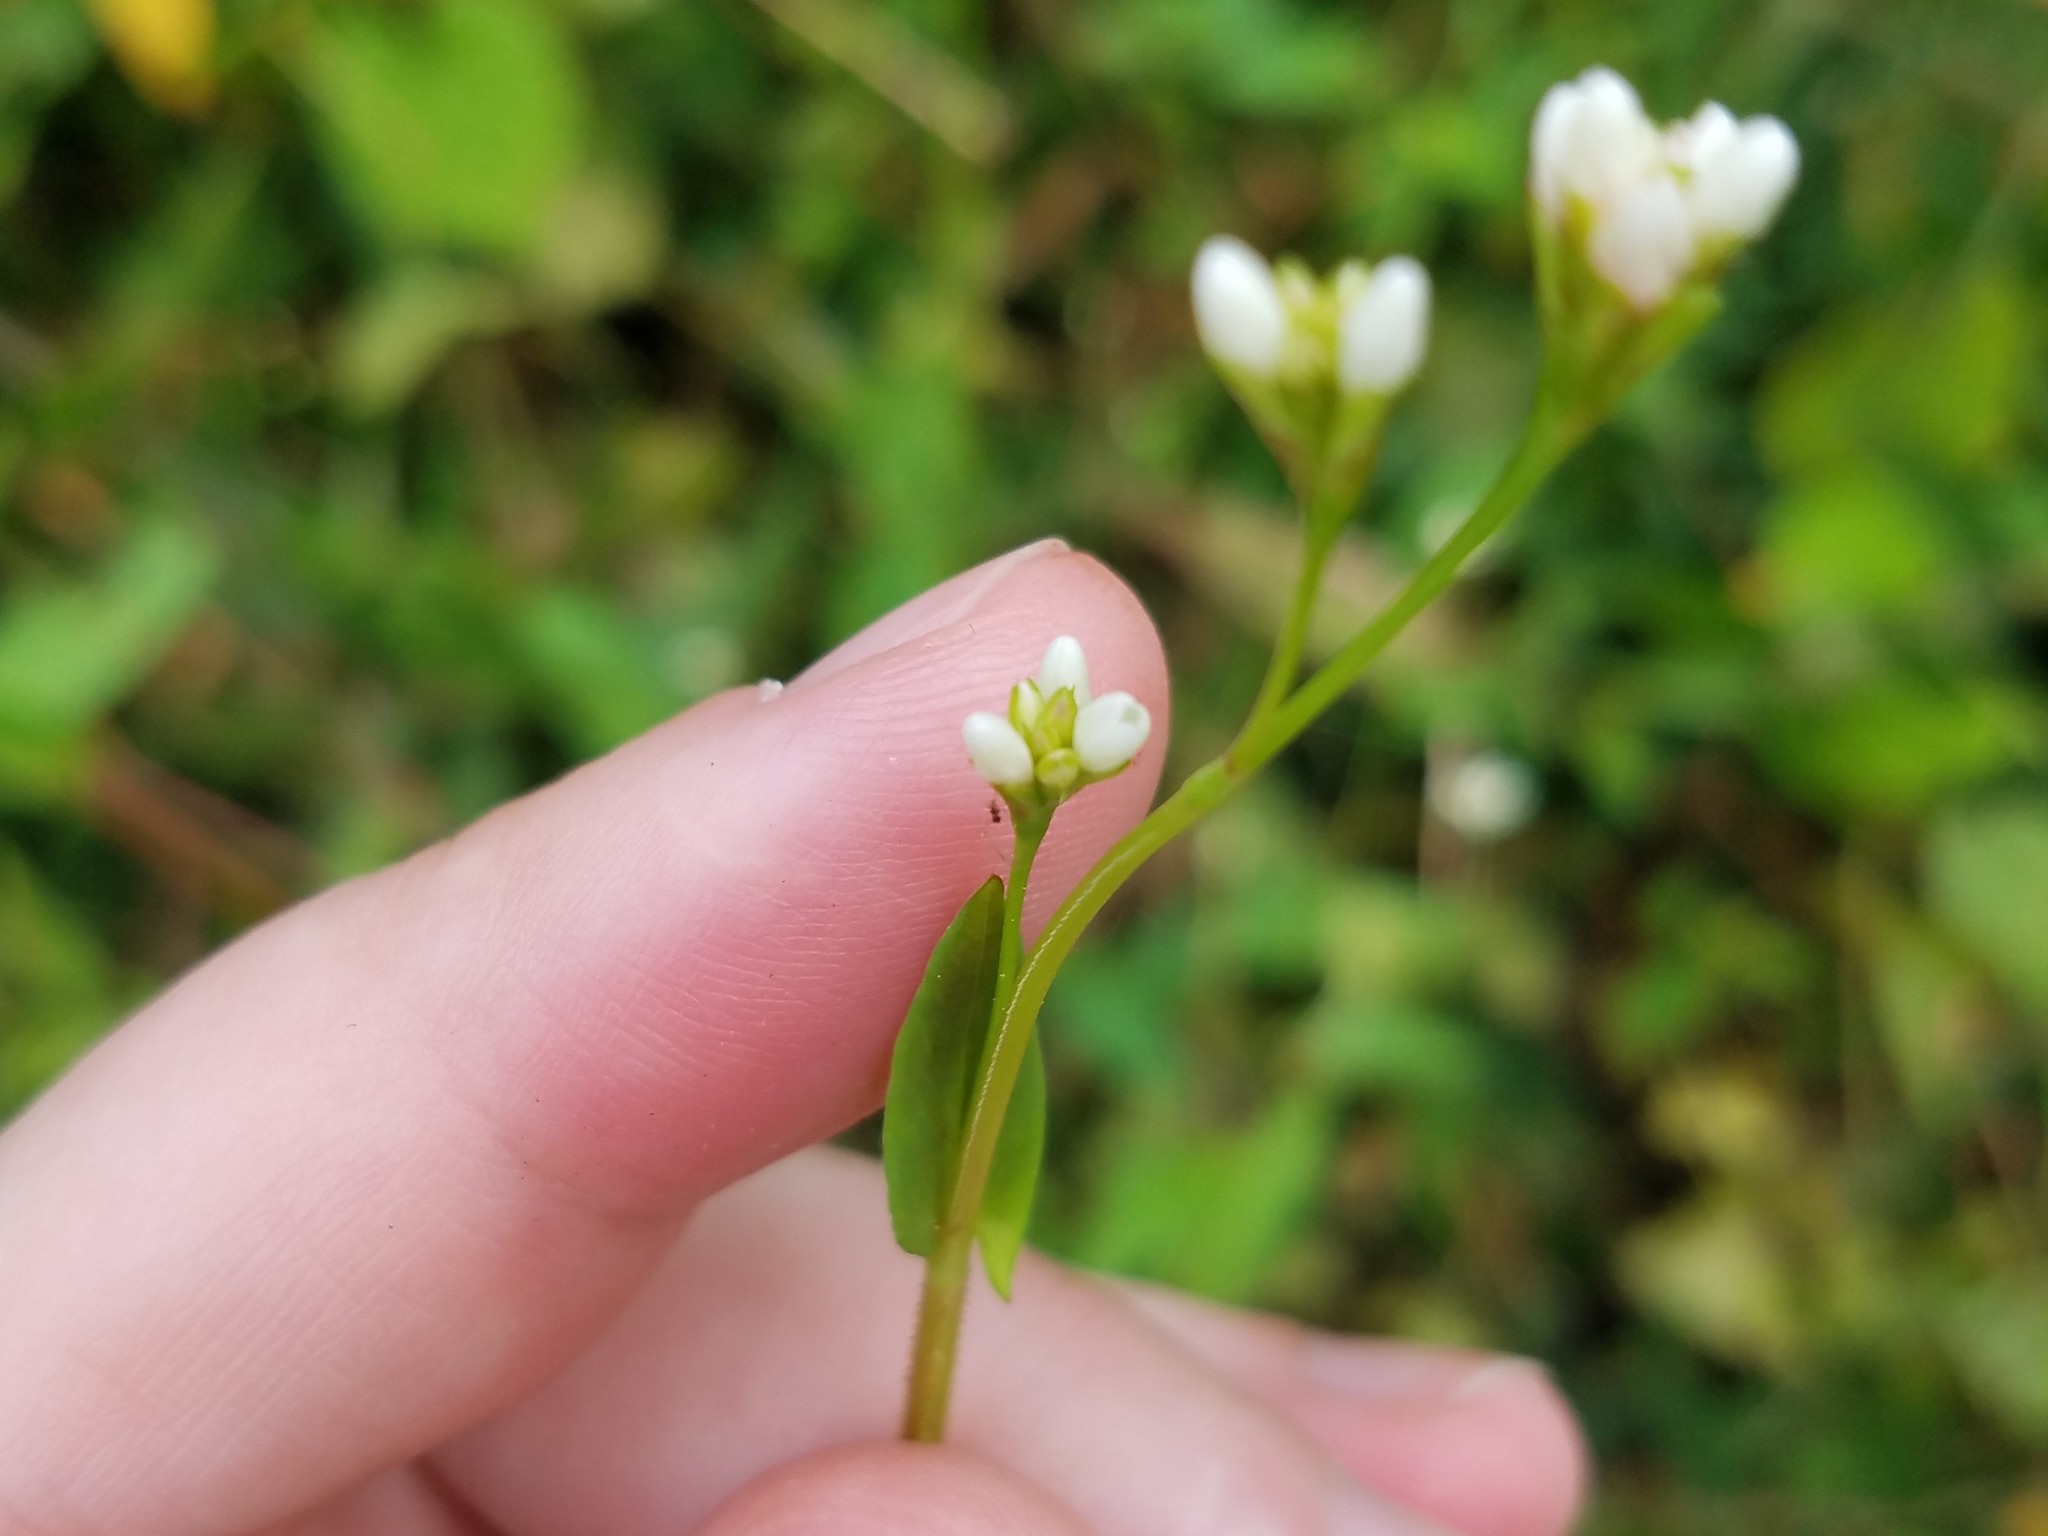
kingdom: Plantae
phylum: Tracheophyta
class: Magnoliopsida
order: Caryophyllales
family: Polygonaceae
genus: Persicaria
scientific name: Persicaria sagittata
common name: American tearthumb
